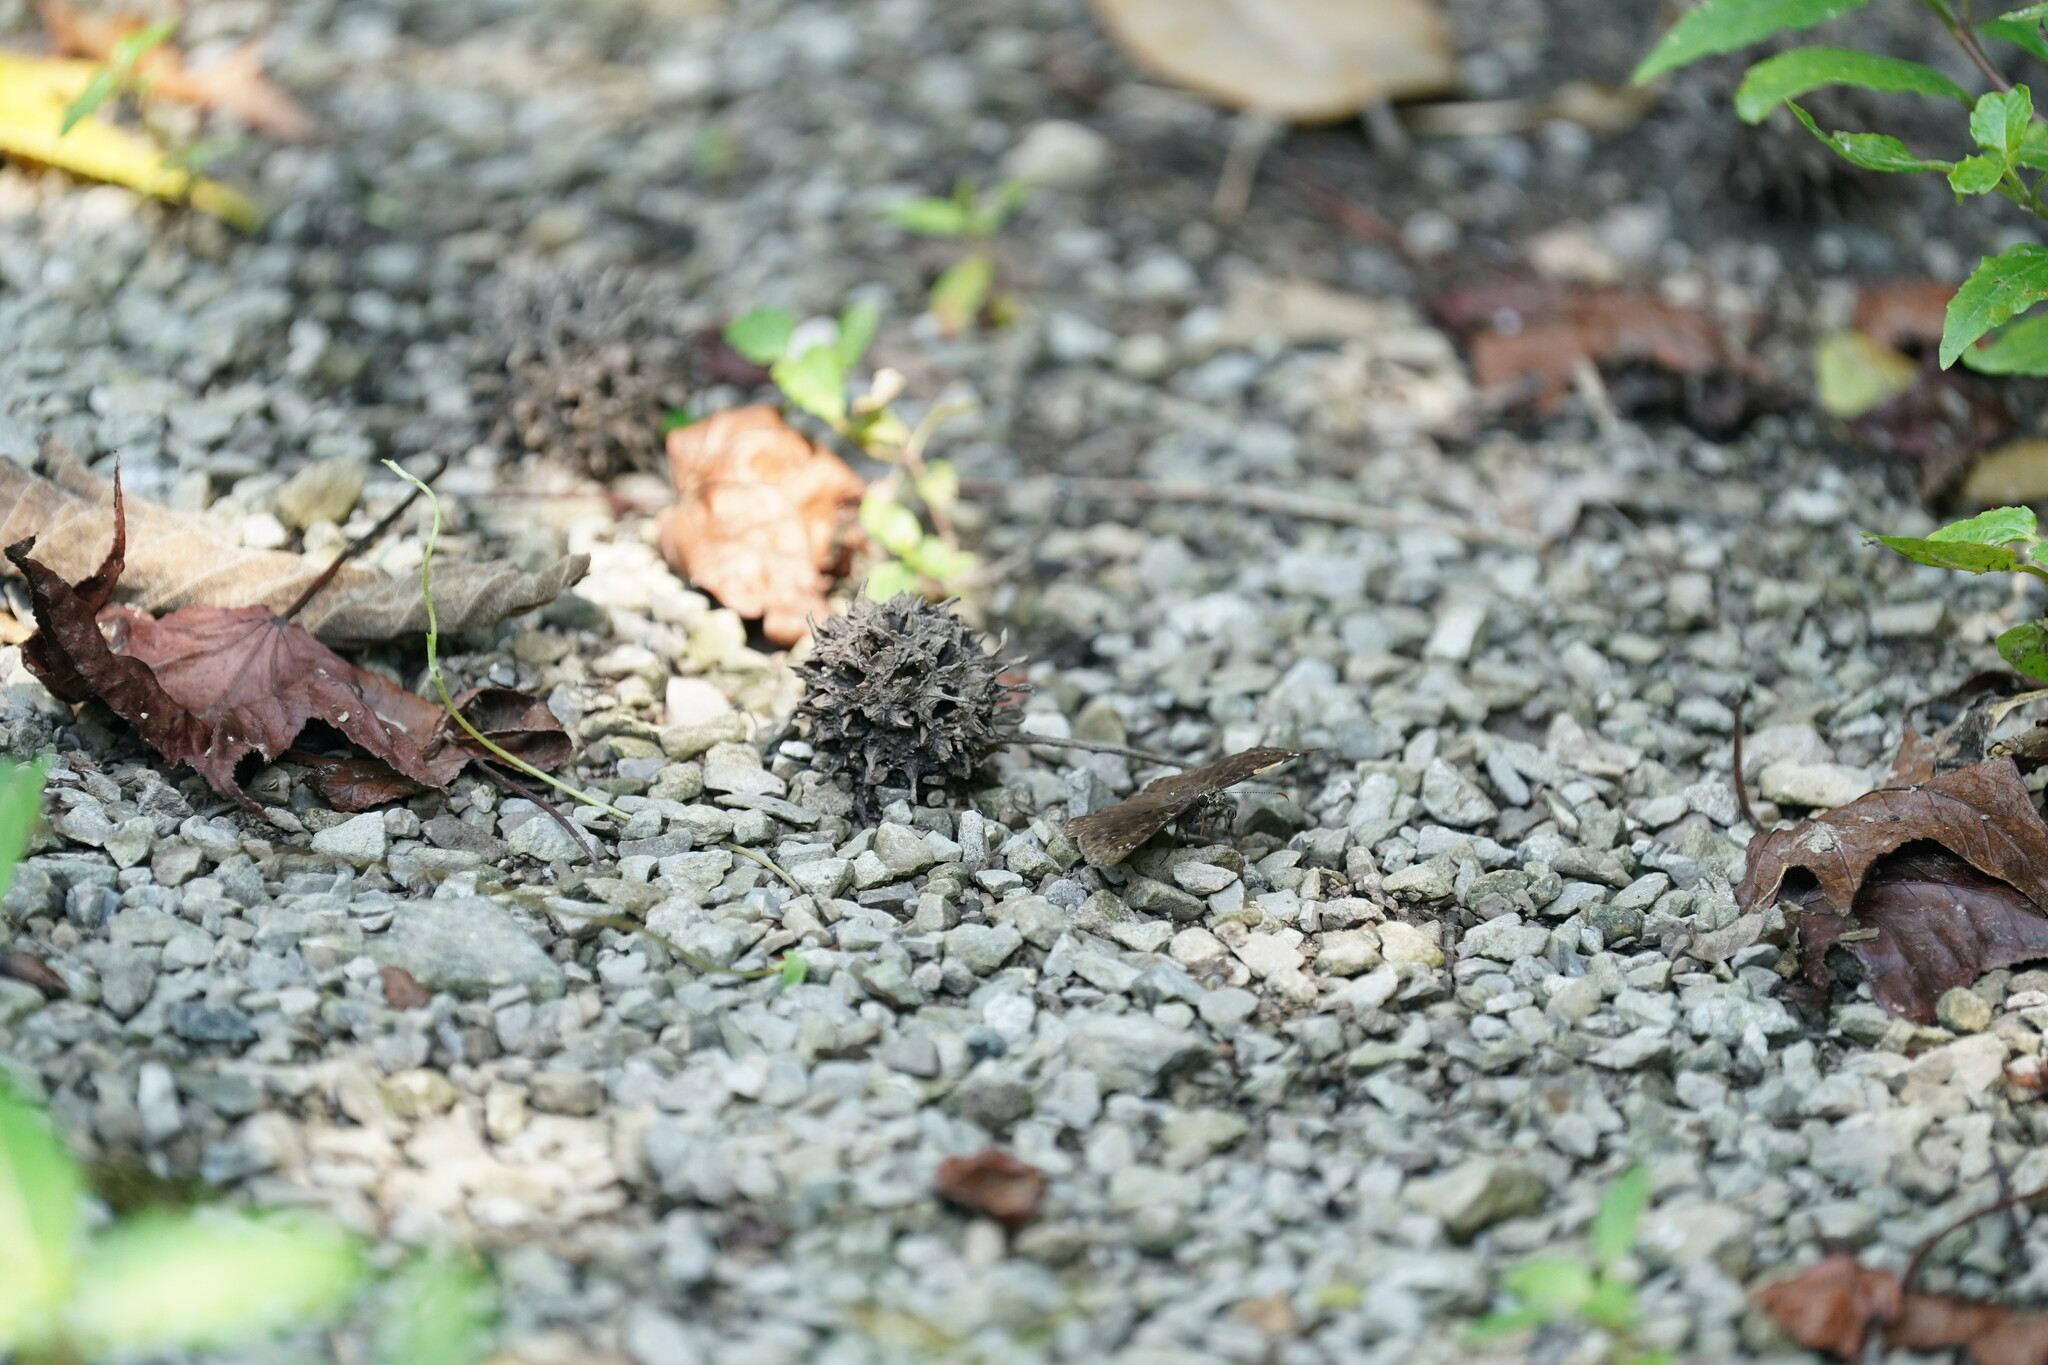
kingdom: Animalia
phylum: Arthropoda
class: Insecta
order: Lepidoptera
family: Hesperiidae
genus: Erynnis
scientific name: Erynnis horatius
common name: Horace's duskywing
